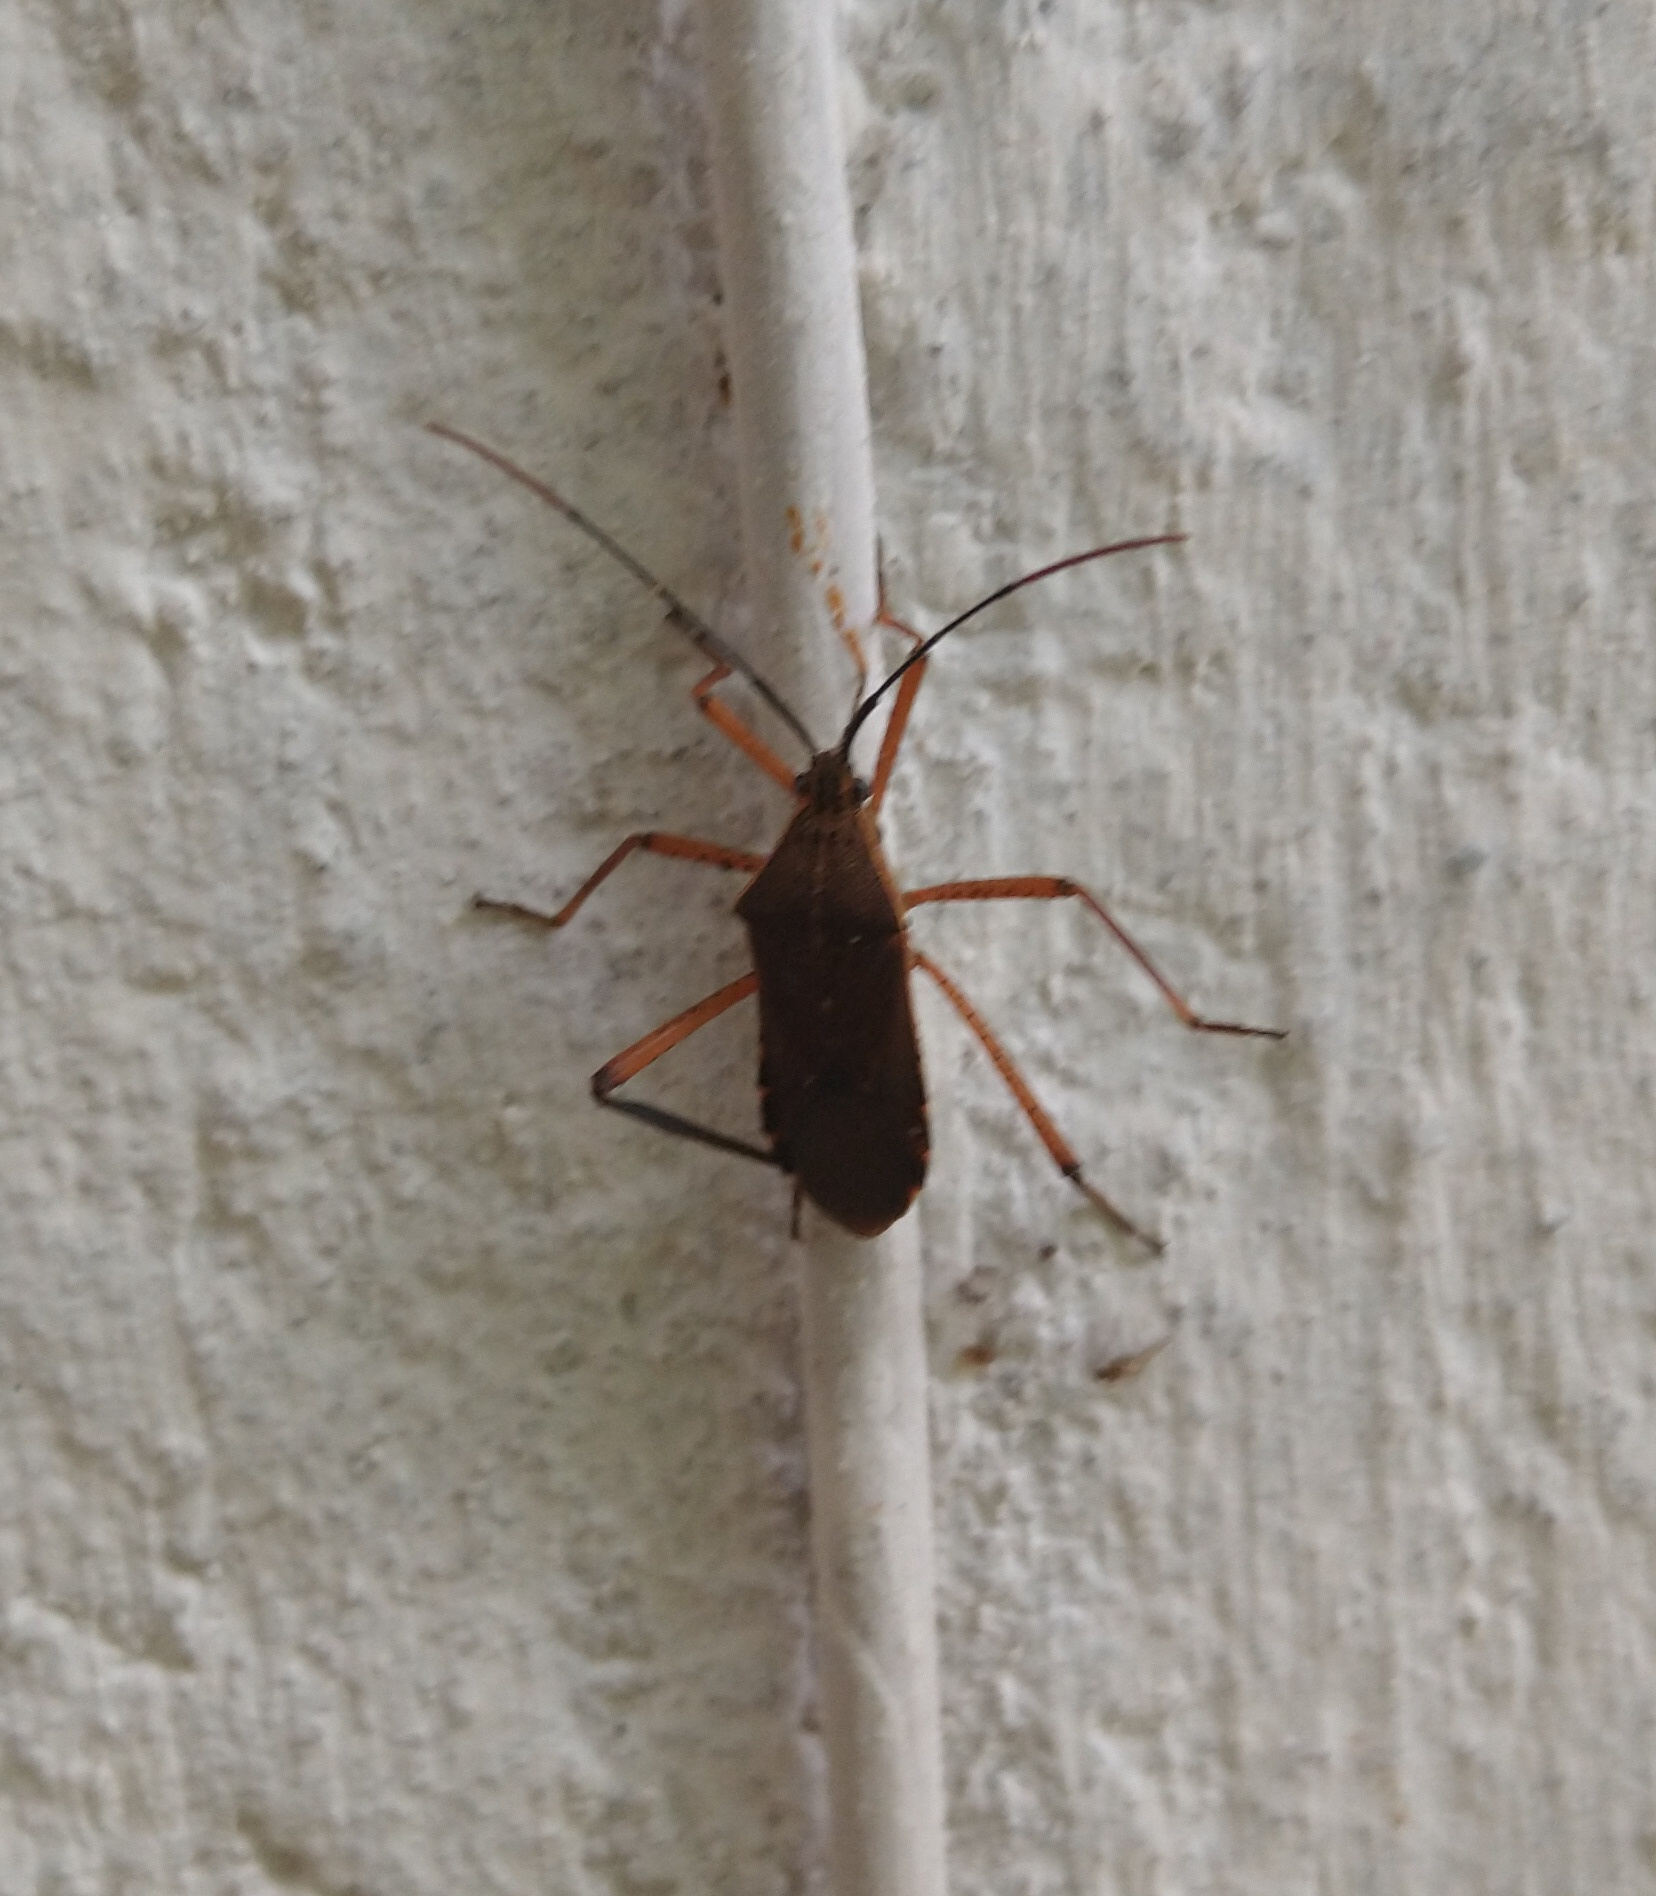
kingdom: Animalia
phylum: Arthropoda
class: Insecta
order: Hemiptera
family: Coreidae
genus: Nyttum
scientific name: Nyttum beckeri
